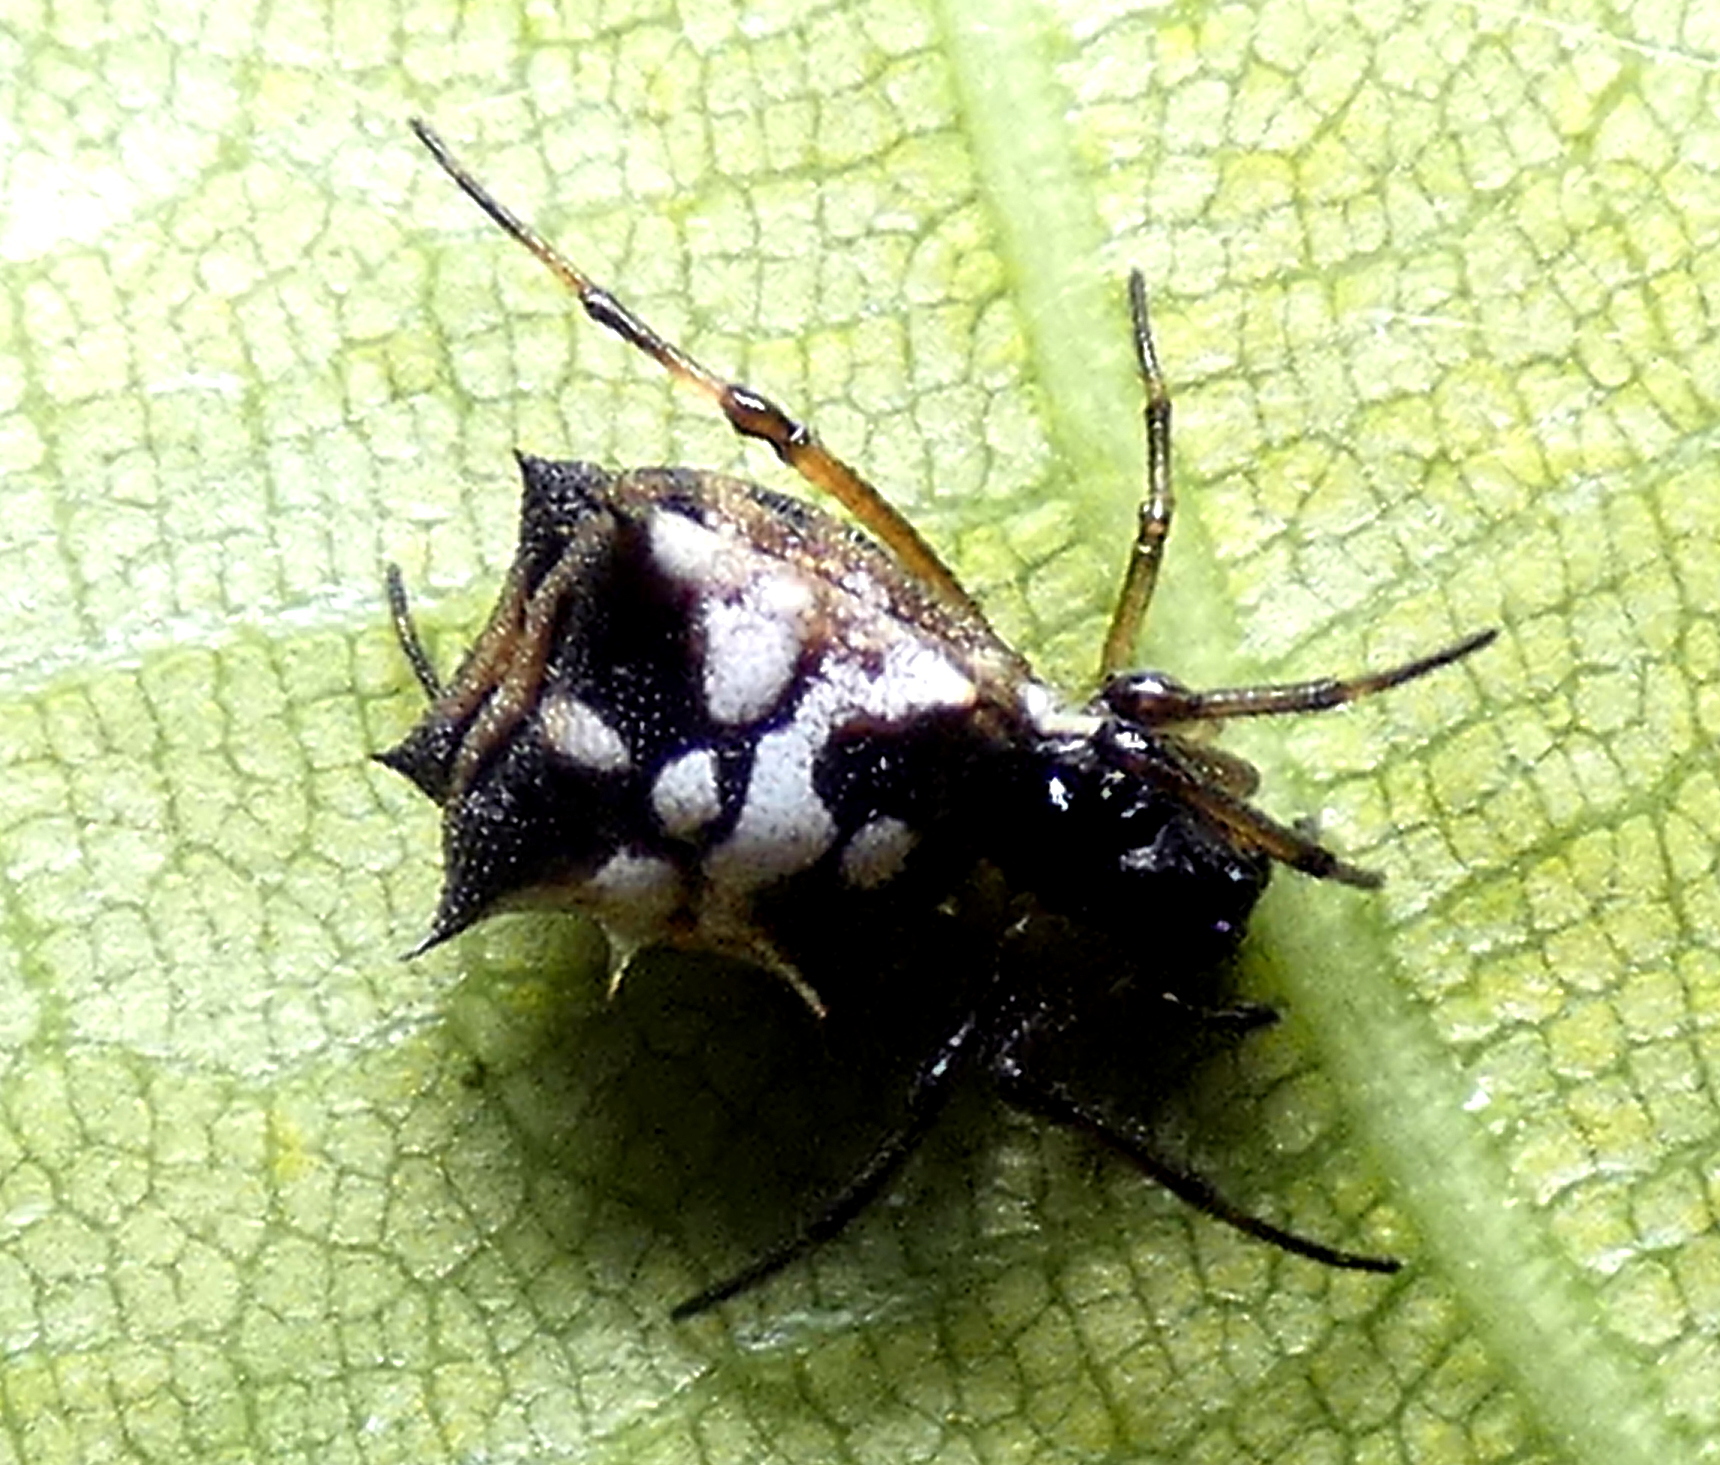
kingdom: Animalia
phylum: Arthropoda
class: Arachnida
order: Araneae
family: Araneidae
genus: Micrathena
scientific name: Micrathena picta
